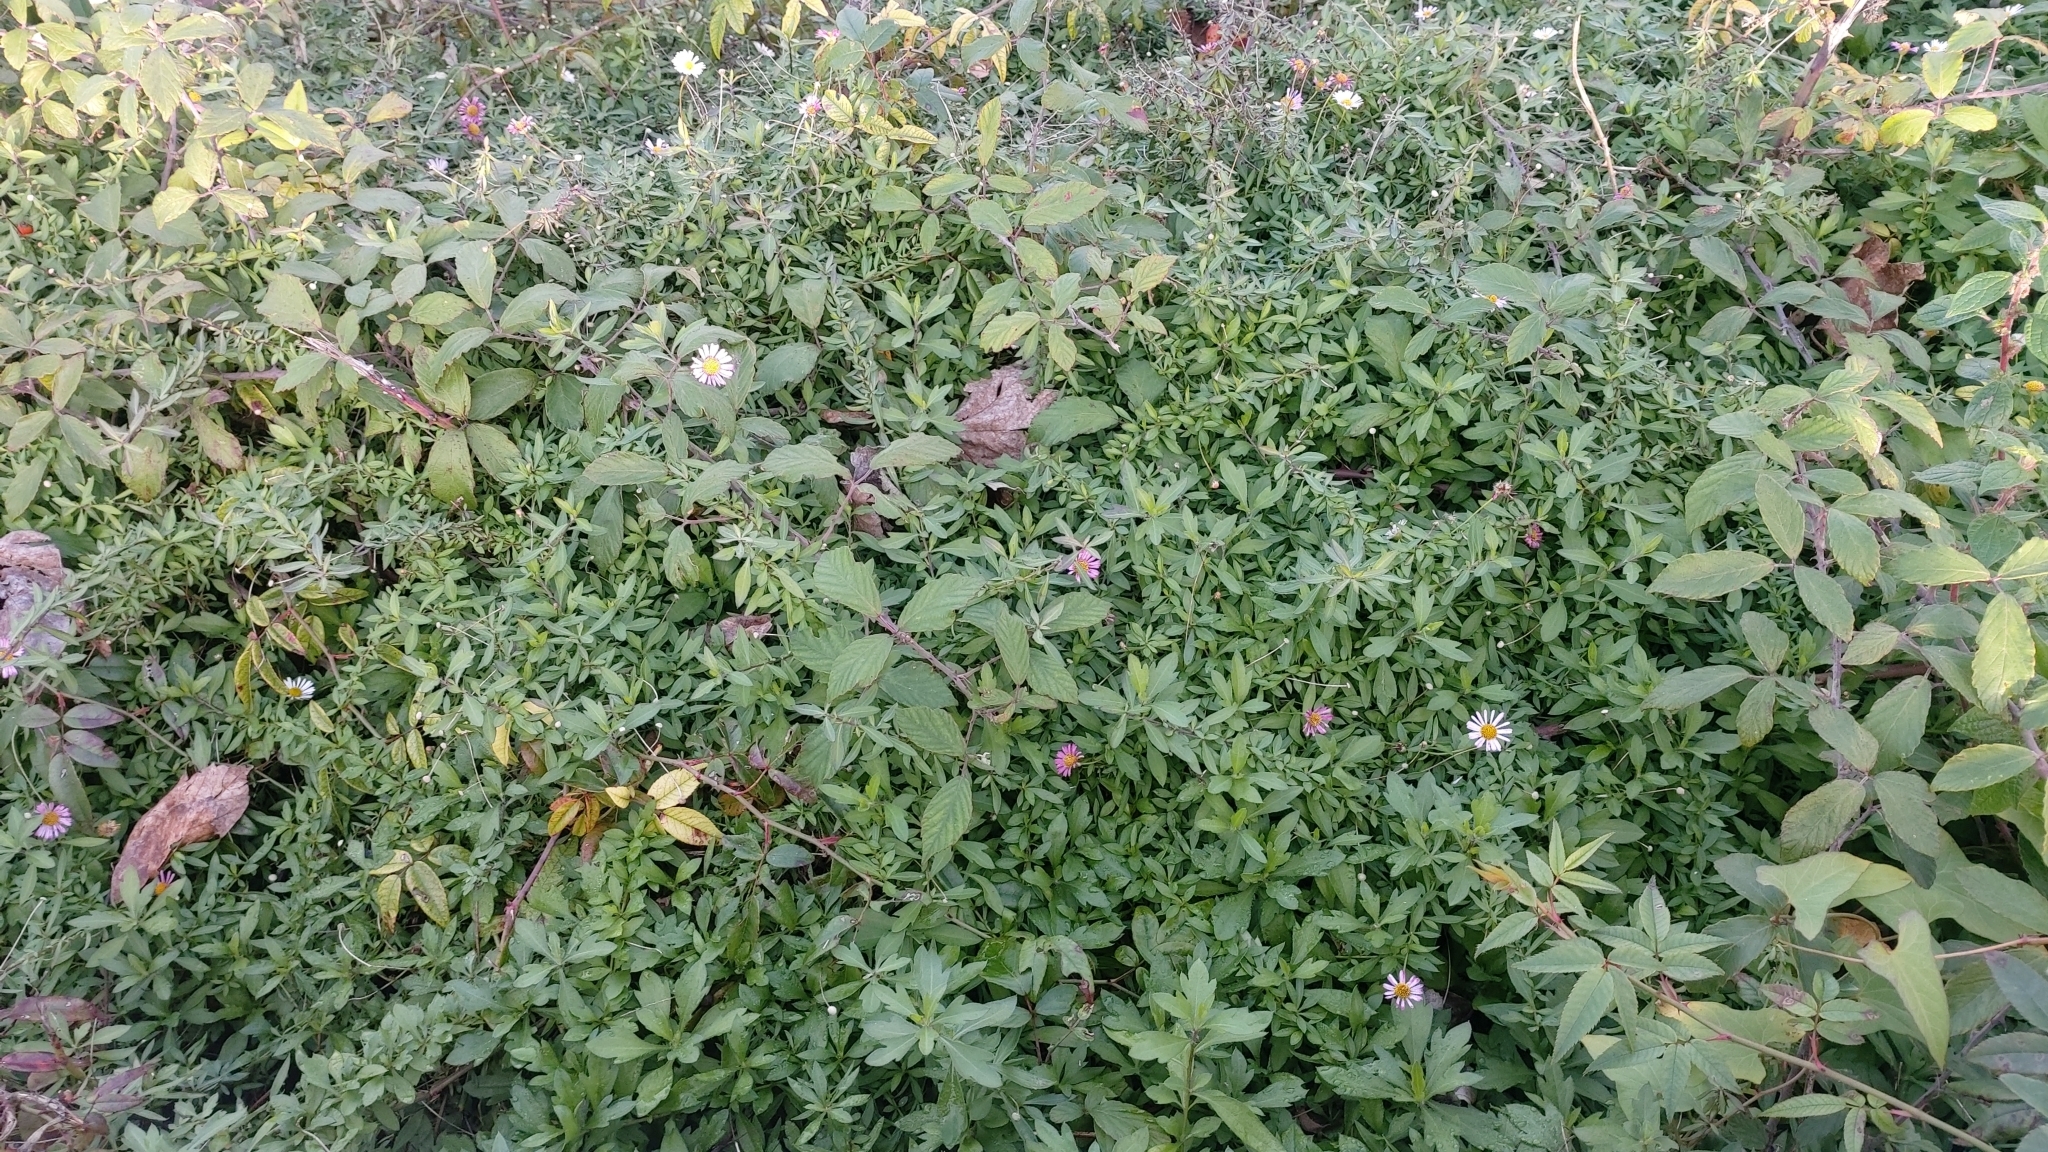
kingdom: Plantae
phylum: Tracheophyta
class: Magnoliopsida
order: Asterales
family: Asteraceae
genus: Erigeron
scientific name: Erigeron karvinskianus
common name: Mexican fleabane
